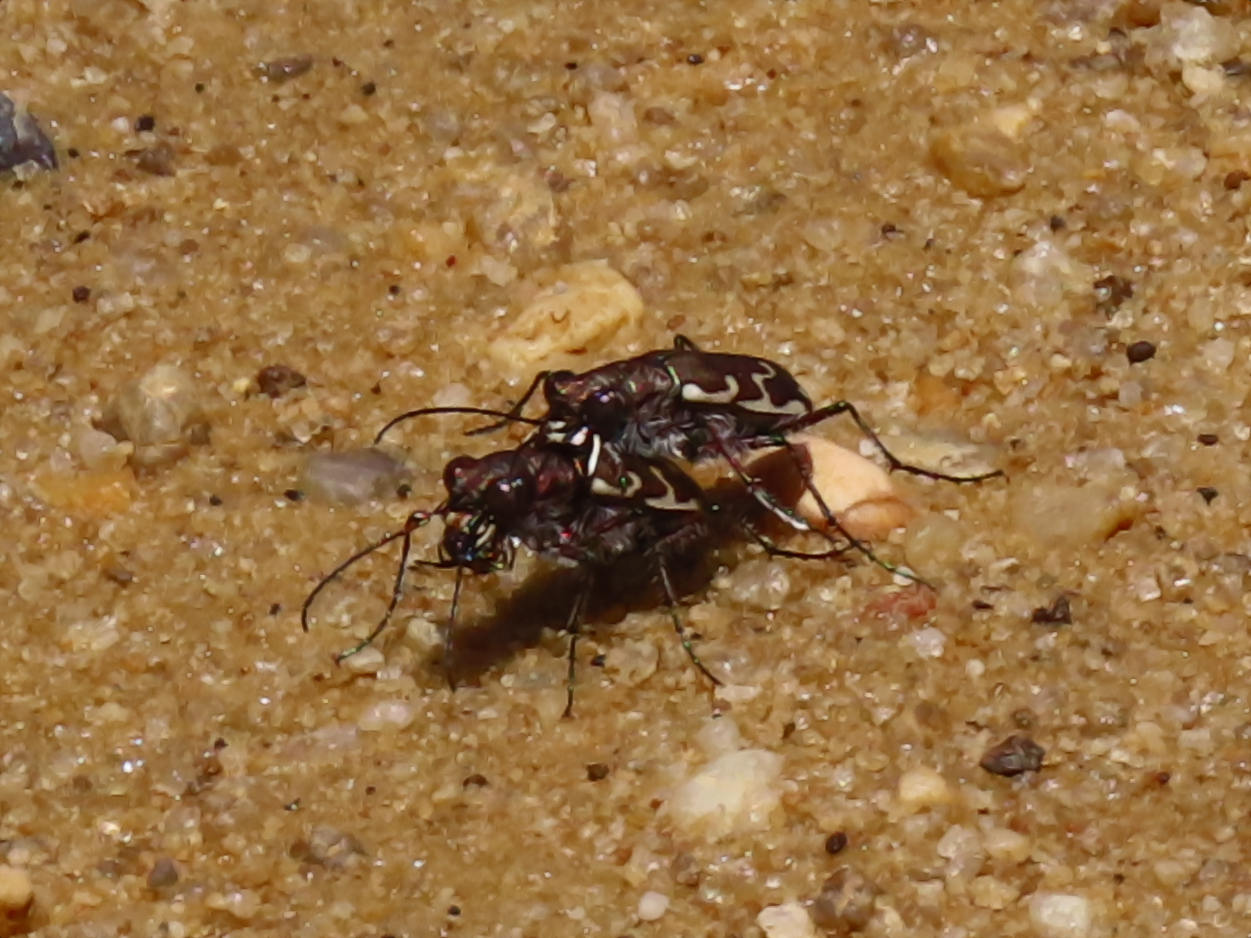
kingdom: Animalia
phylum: Arthropoda
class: Insecta
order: Coleoptera
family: Carabidae
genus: Cicindela
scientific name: Cicindela repanda
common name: Bronzed tiger beetle
